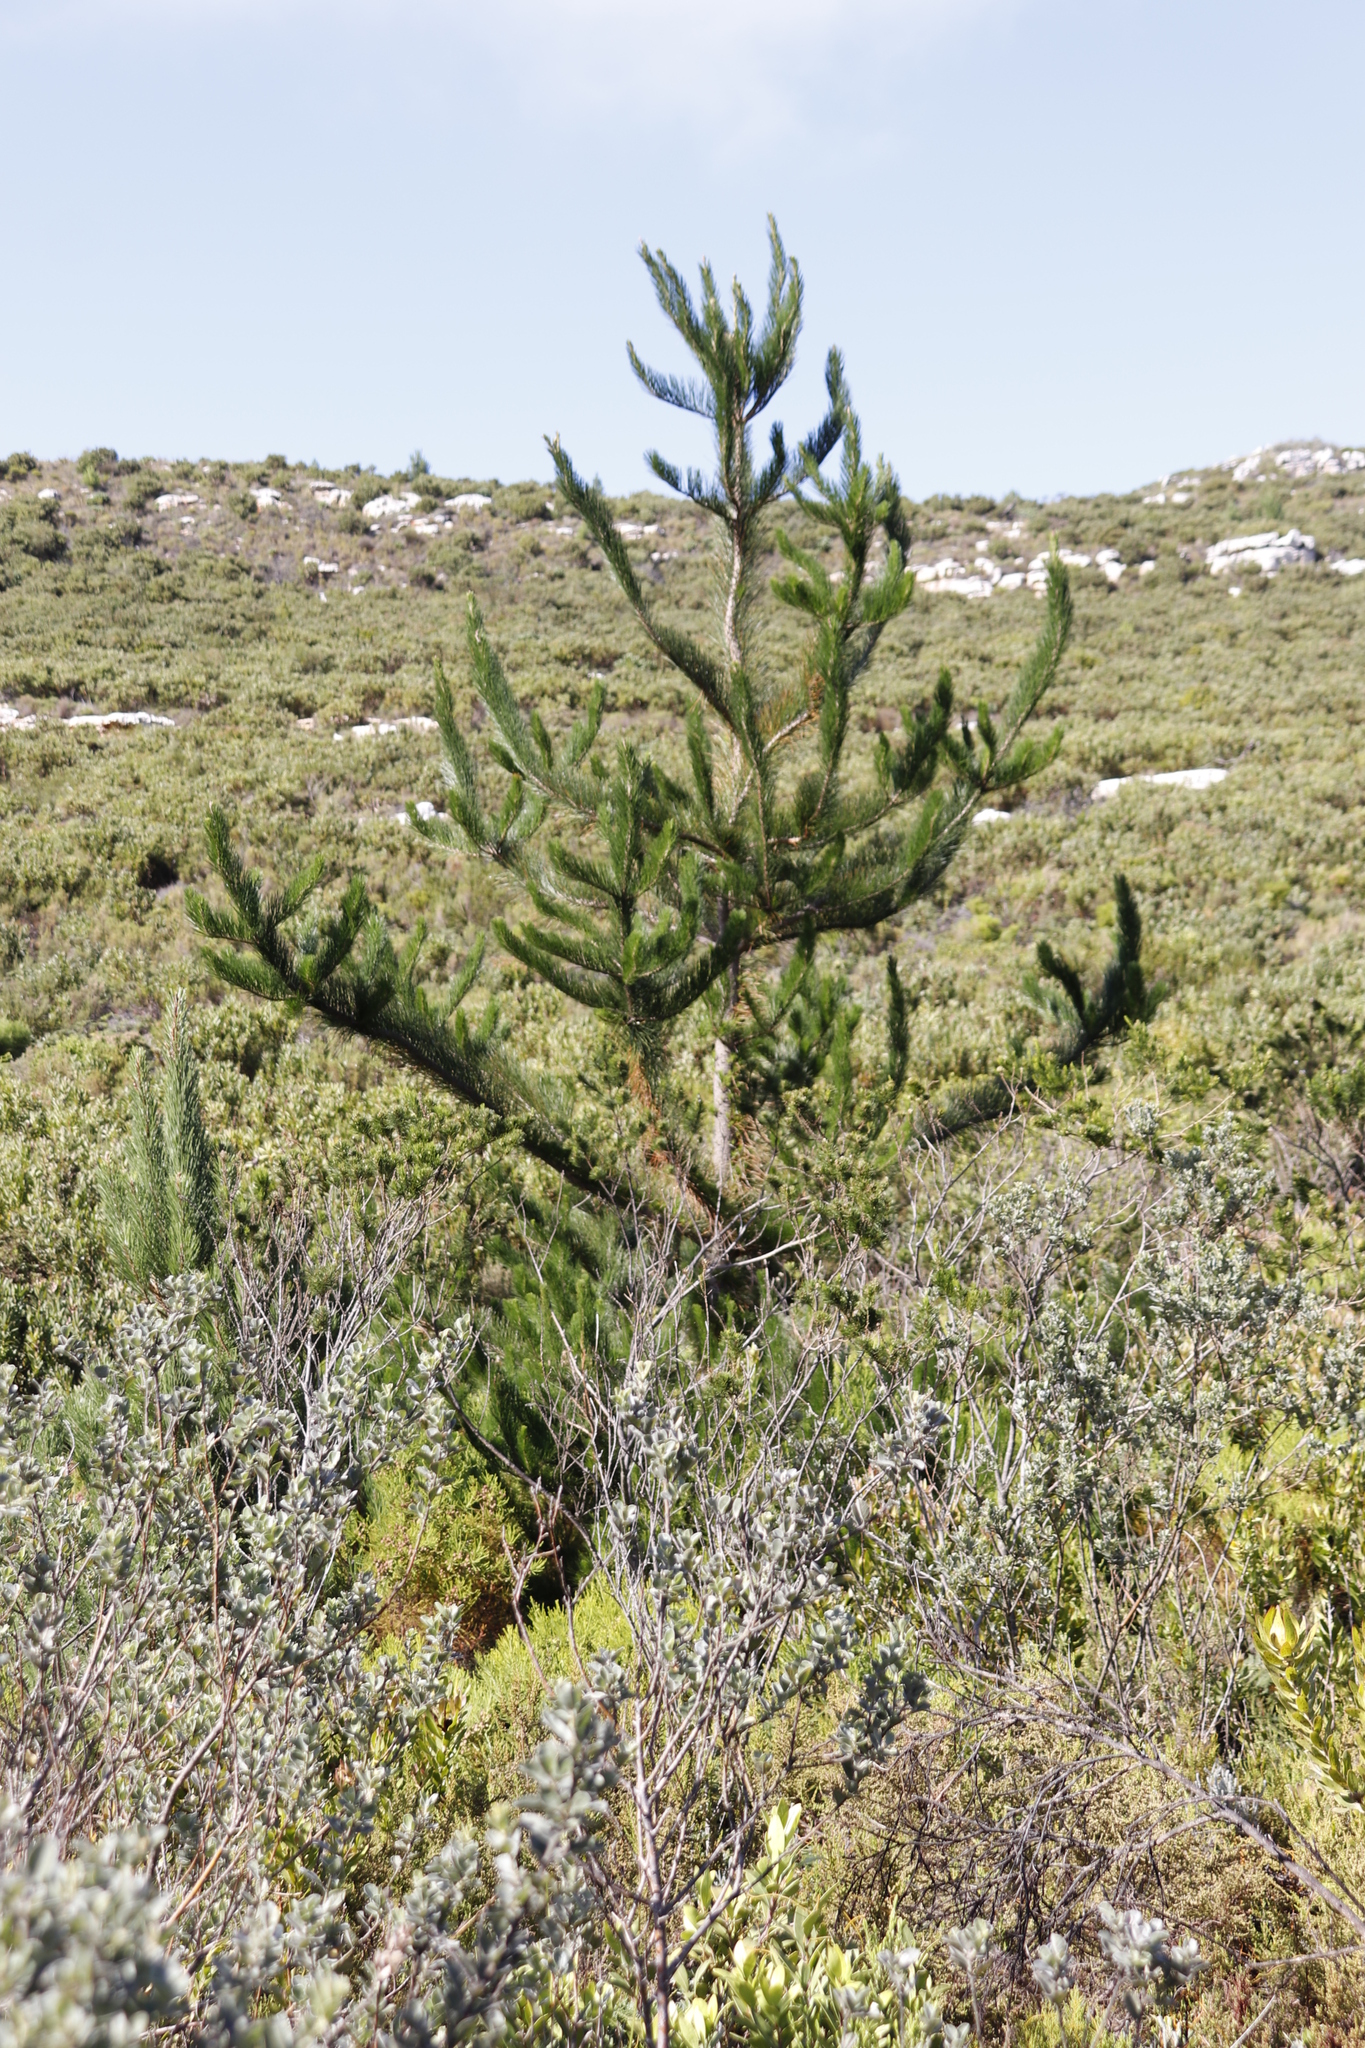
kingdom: Plantae
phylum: Tracheophyta
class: Pinopsida
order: Pinales
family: Pinaceae
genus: Pinus
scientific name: Pinus radiata
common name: Monterey pine
